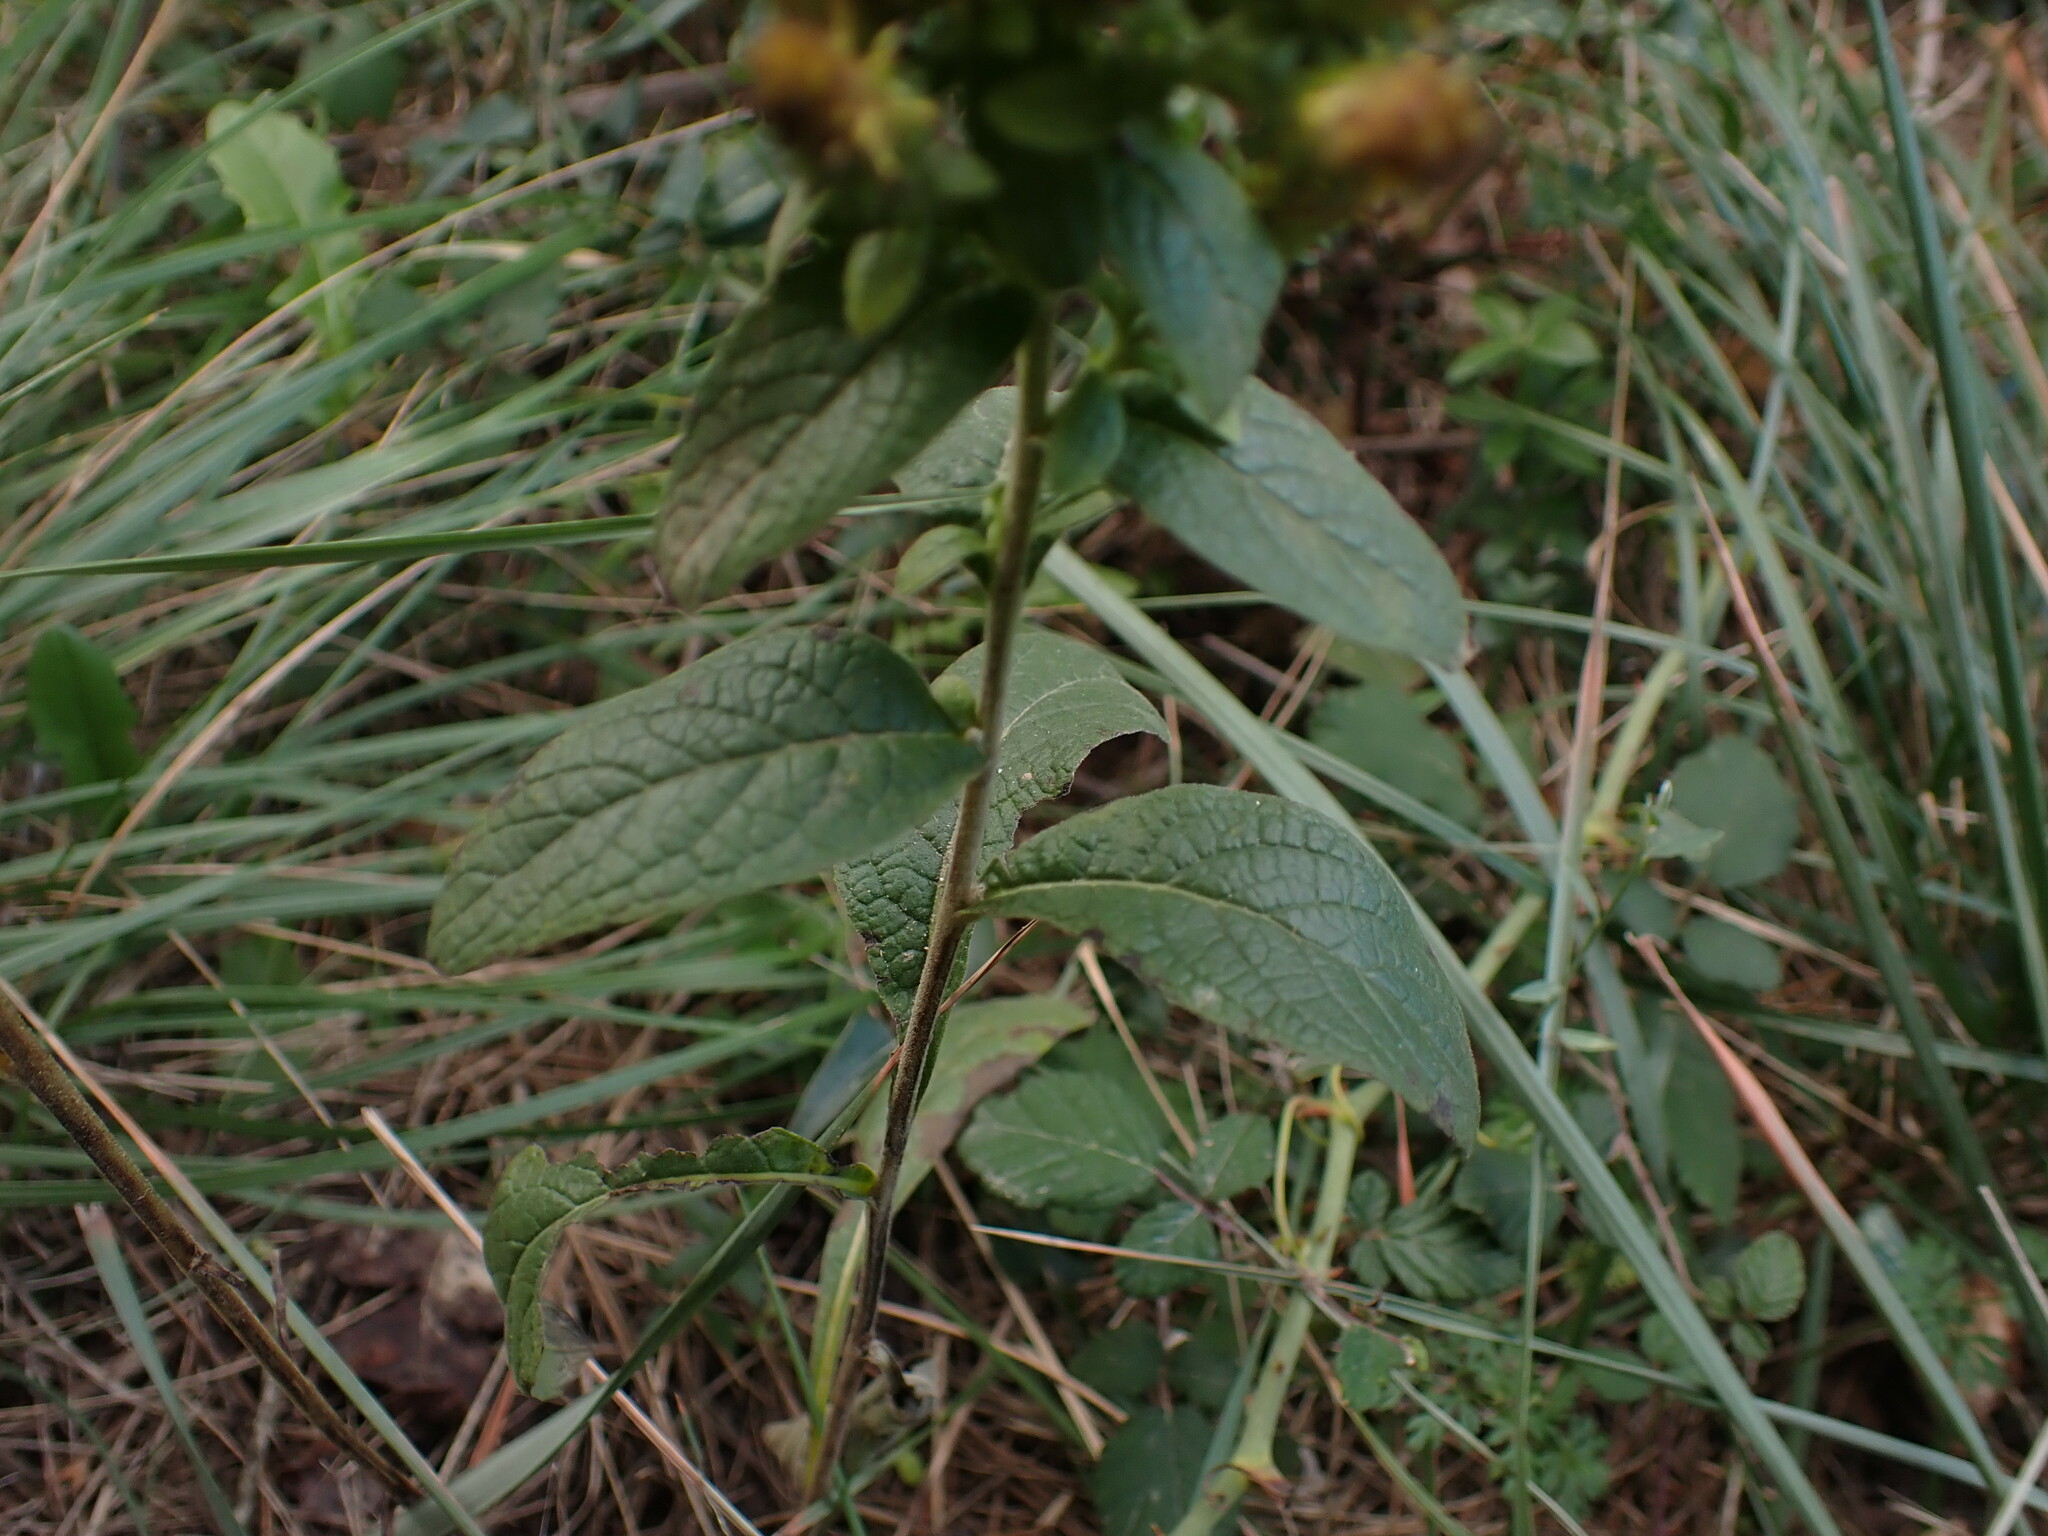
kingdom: Plantae
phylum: Tracheophyta
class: Magnoliopsida
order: Asterales
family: Asteraceae
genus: Pentanema
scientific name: Pentanema squarrosum
